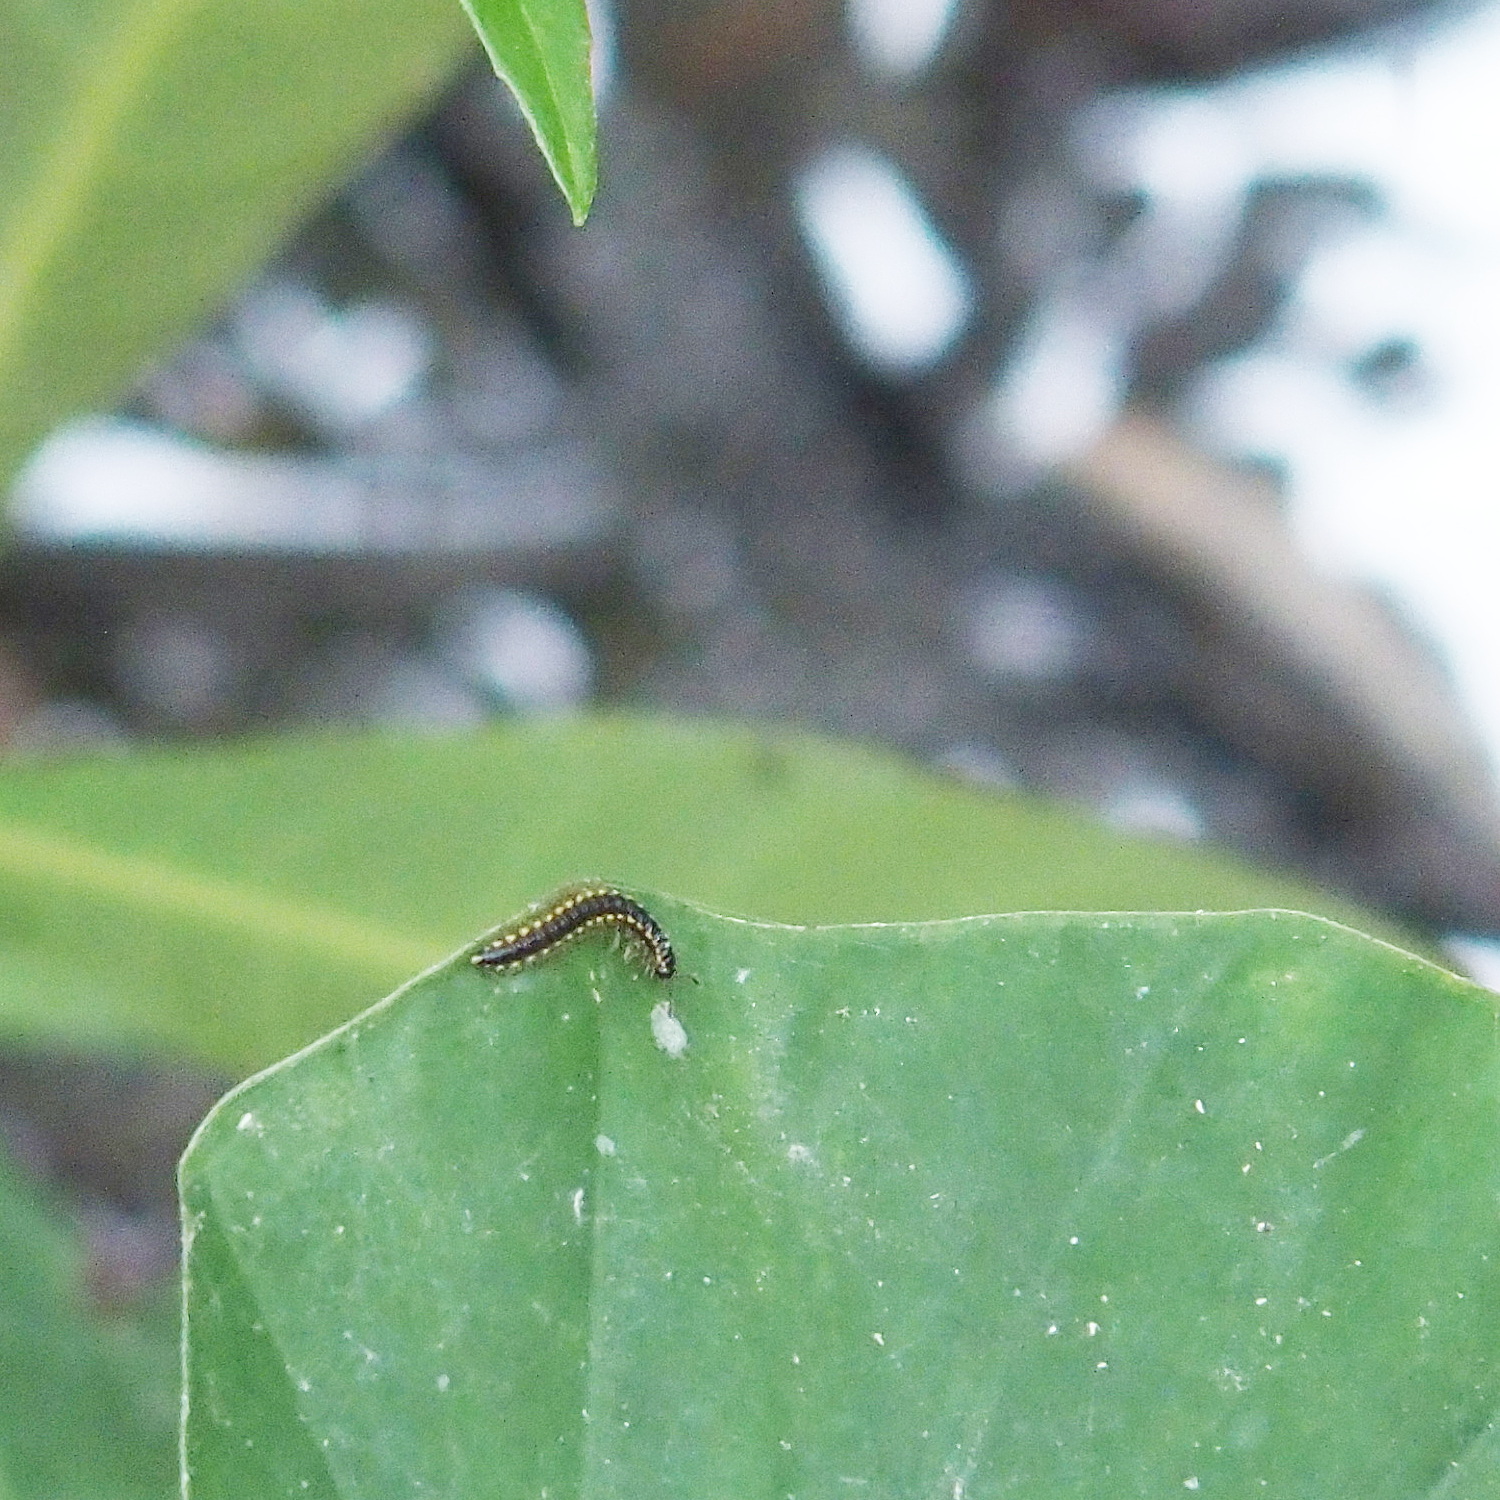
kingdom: Animalia
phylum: Arthropoda
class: Diplopoda
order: Polydesmida
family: Paradoxosomatidae
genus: Orthomorpha
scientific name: Orthomorpha coarctata
